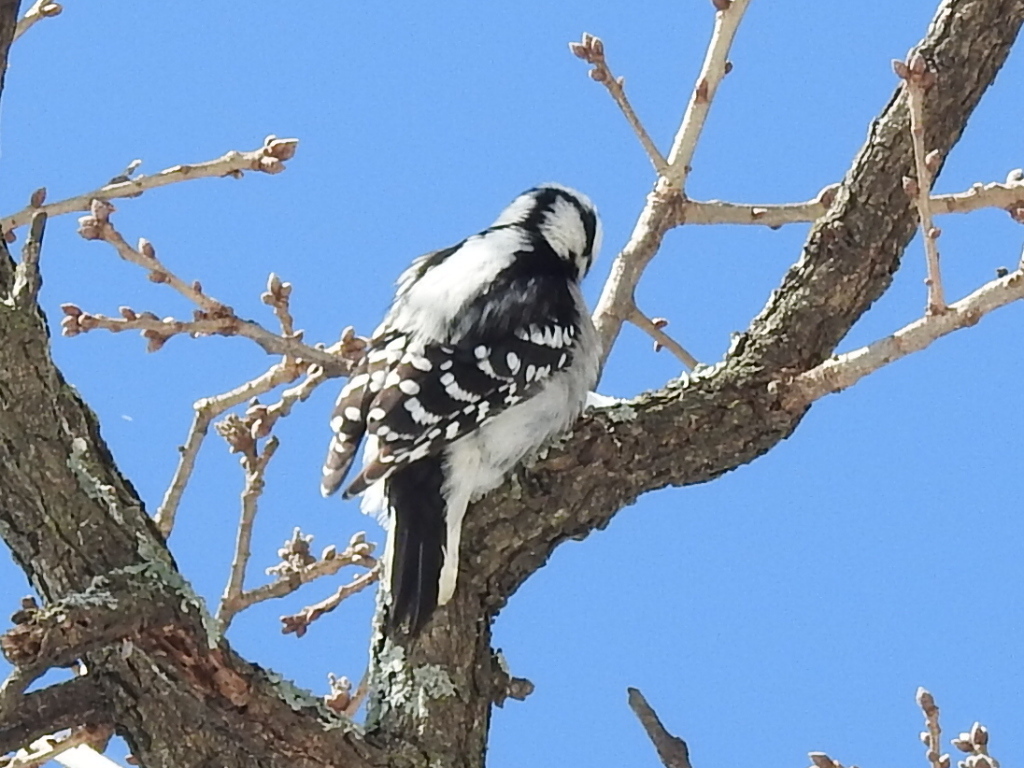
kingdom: Animalia
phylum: Chordata
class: Aves
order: Piciformes
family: Picidae
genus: Dryobates
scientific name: Dryobates pubescens
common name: Downy woodpecker
